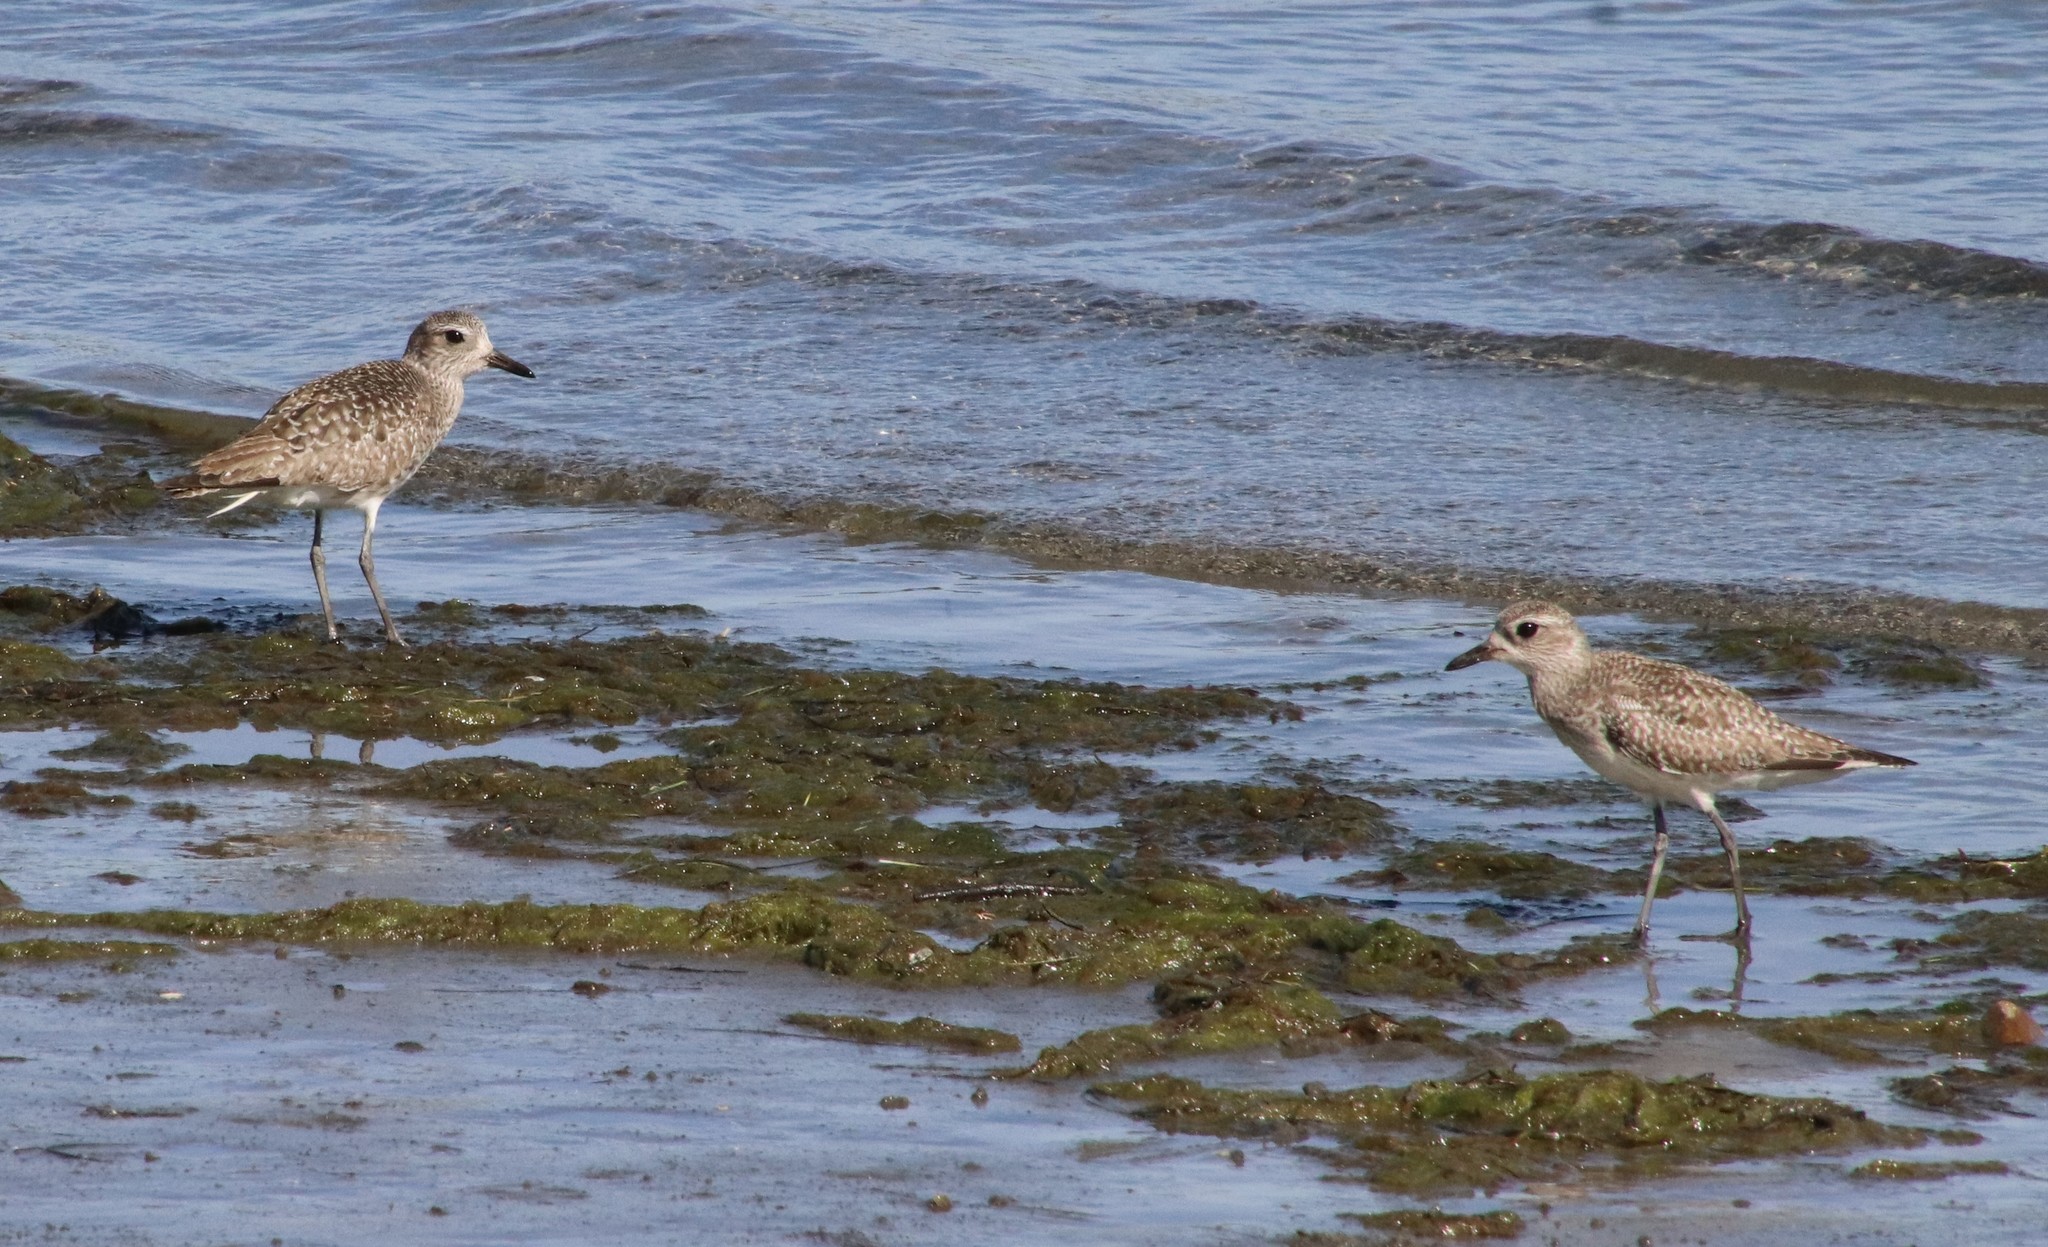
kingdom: Animalia
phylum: Chordata
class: Aves
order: Charadriiformes
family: Charadriidae
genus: Pluvialis
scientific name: Pluvialis squatarola
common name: Grey plover
